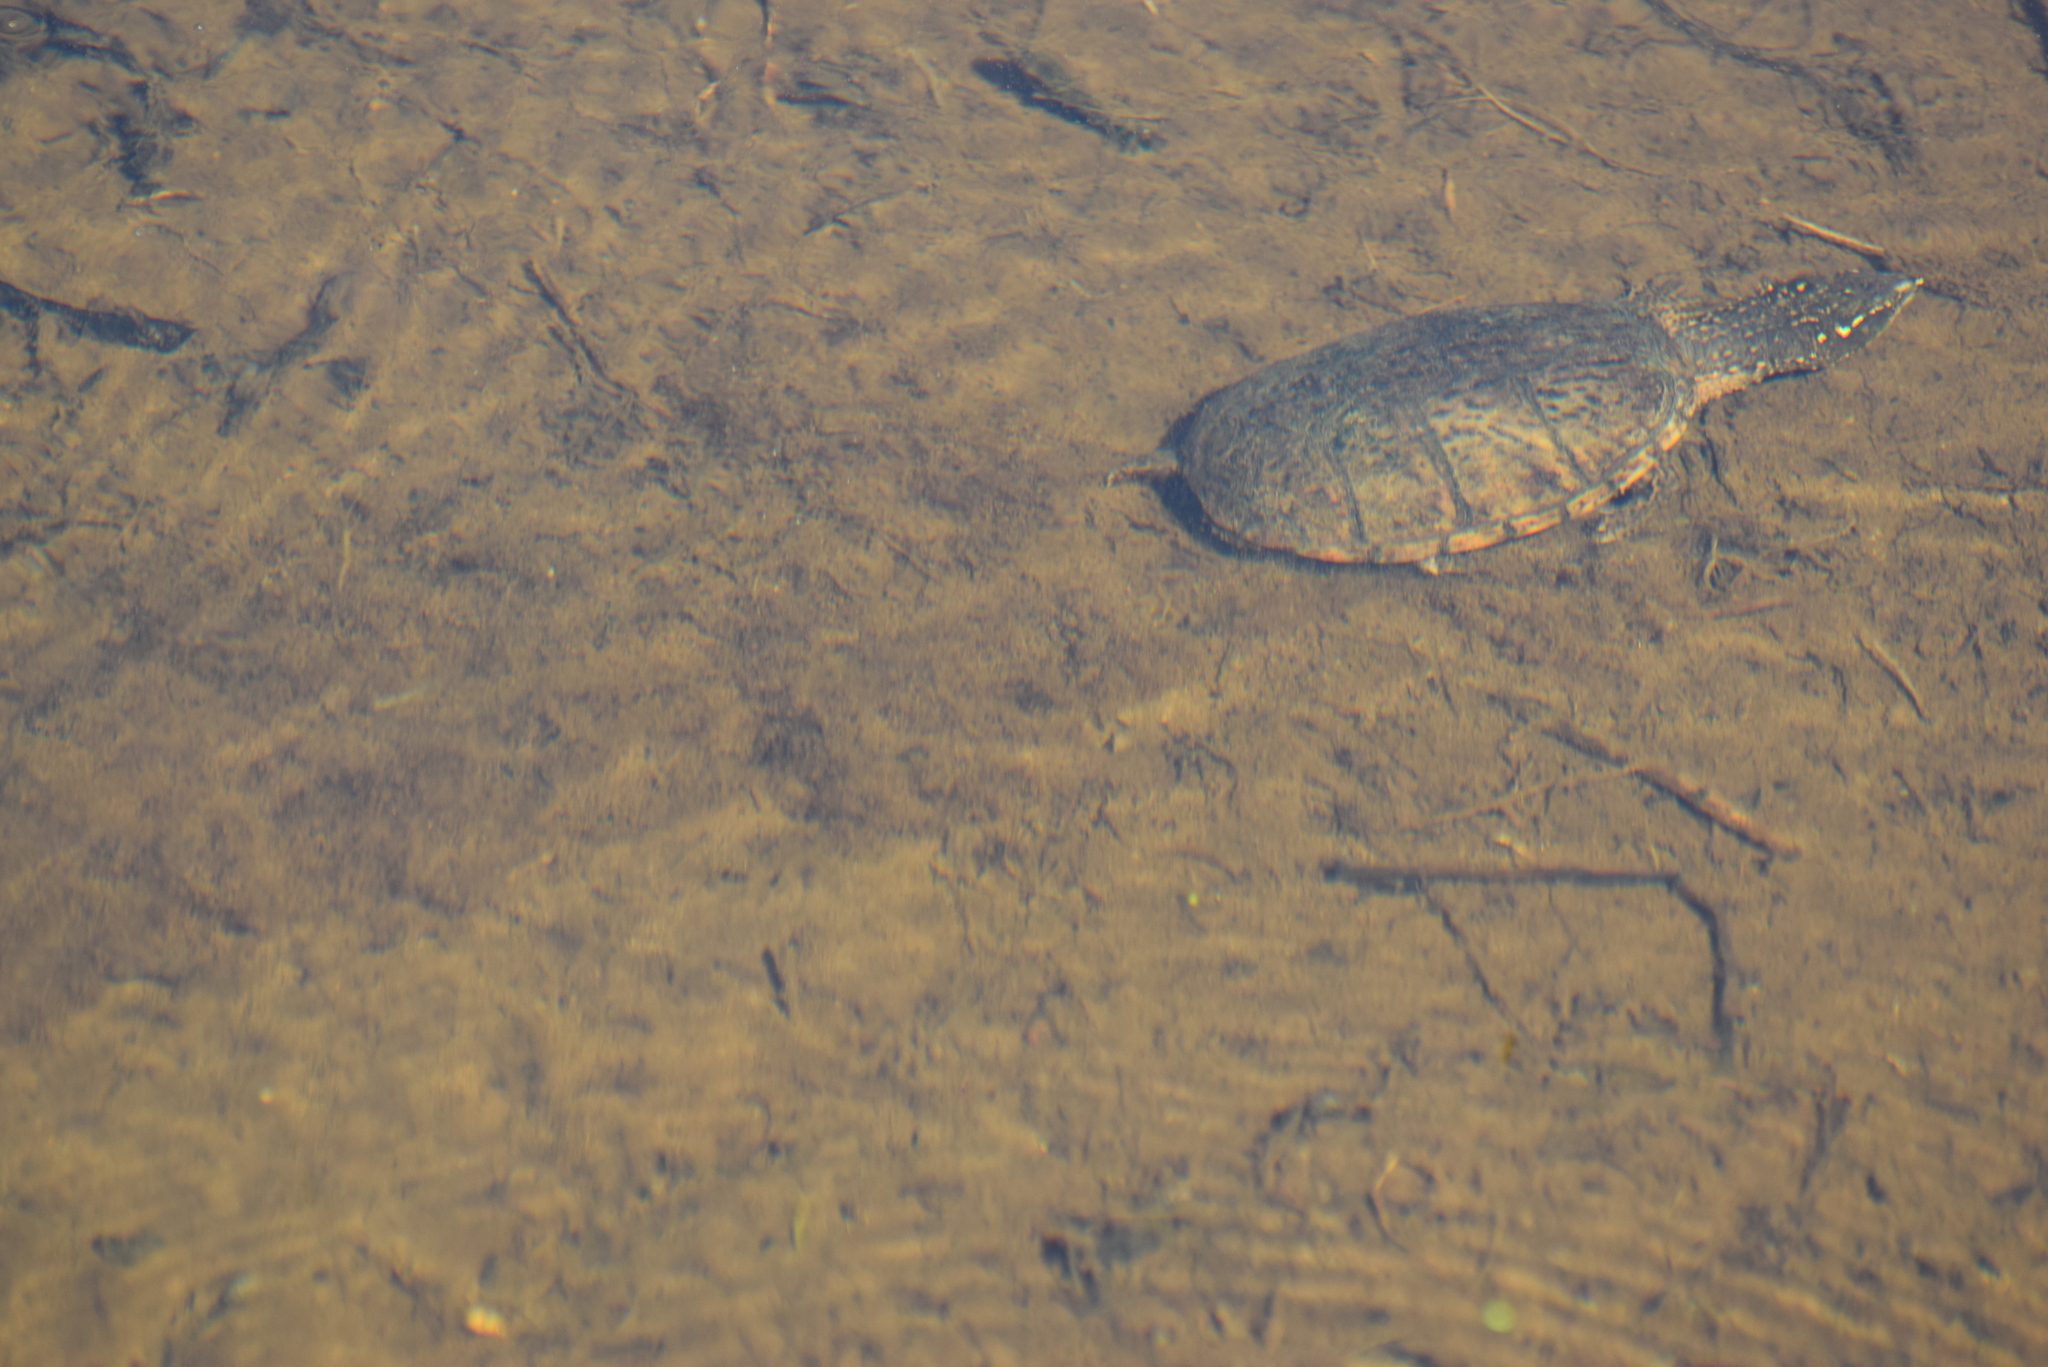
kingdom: Animalia
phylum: Chordata
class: Testudines
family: Kinosternidae
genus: Sternotherus
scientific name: Sternotherus odoratus
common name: Common musk turtle
